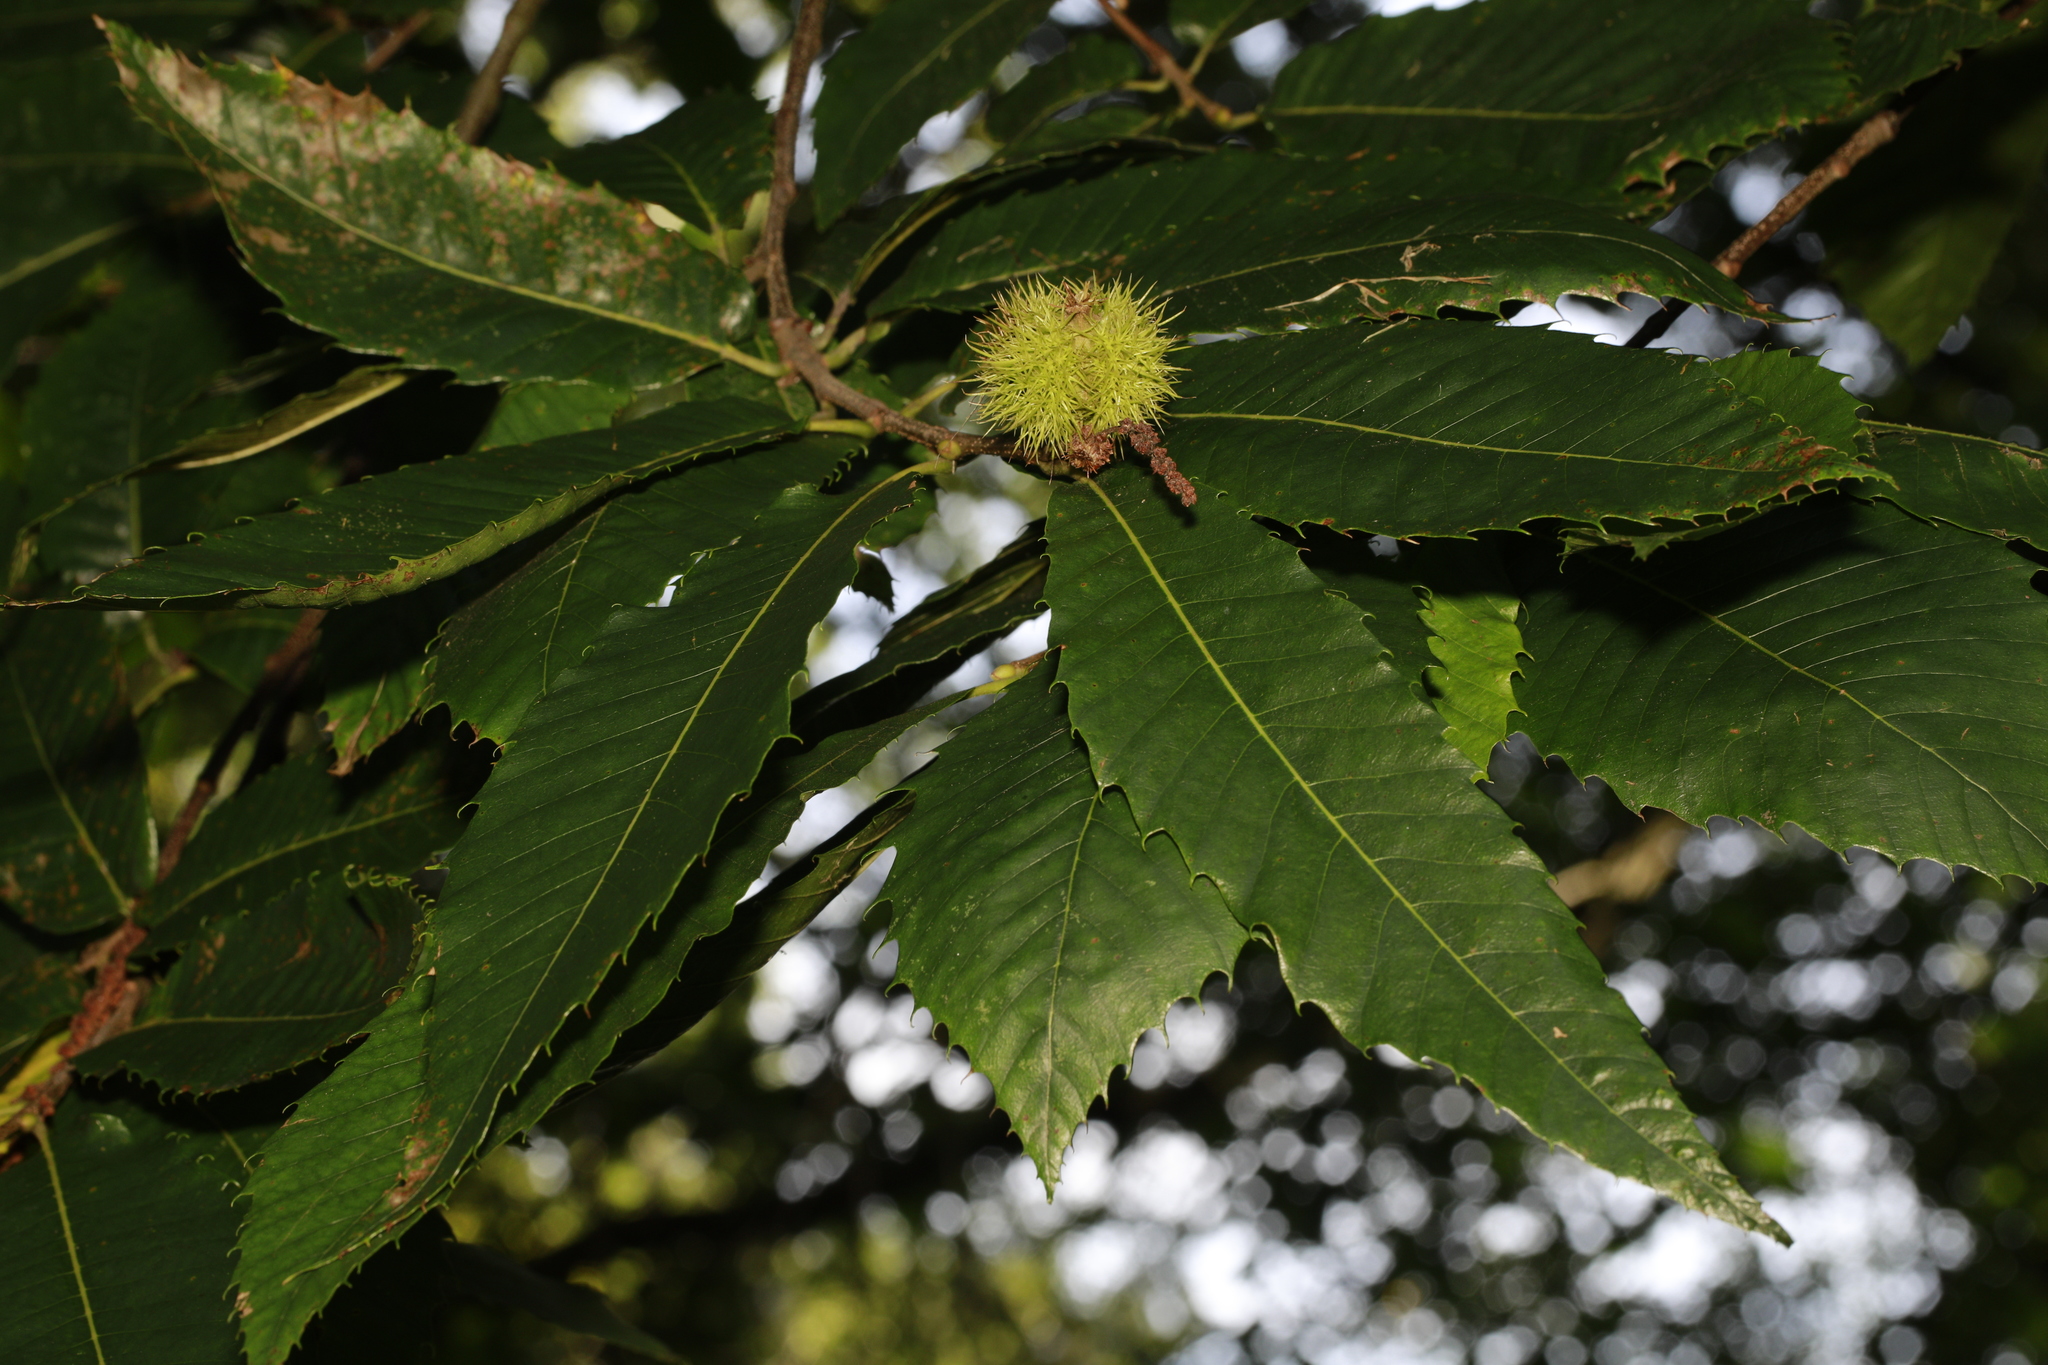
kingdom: Plantae
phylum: Tracheophyta
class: Magnoliopsida
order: Fagales
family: Fagaceae
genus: Castanea
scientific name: Castanea sativa
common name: Sweet chestnut
